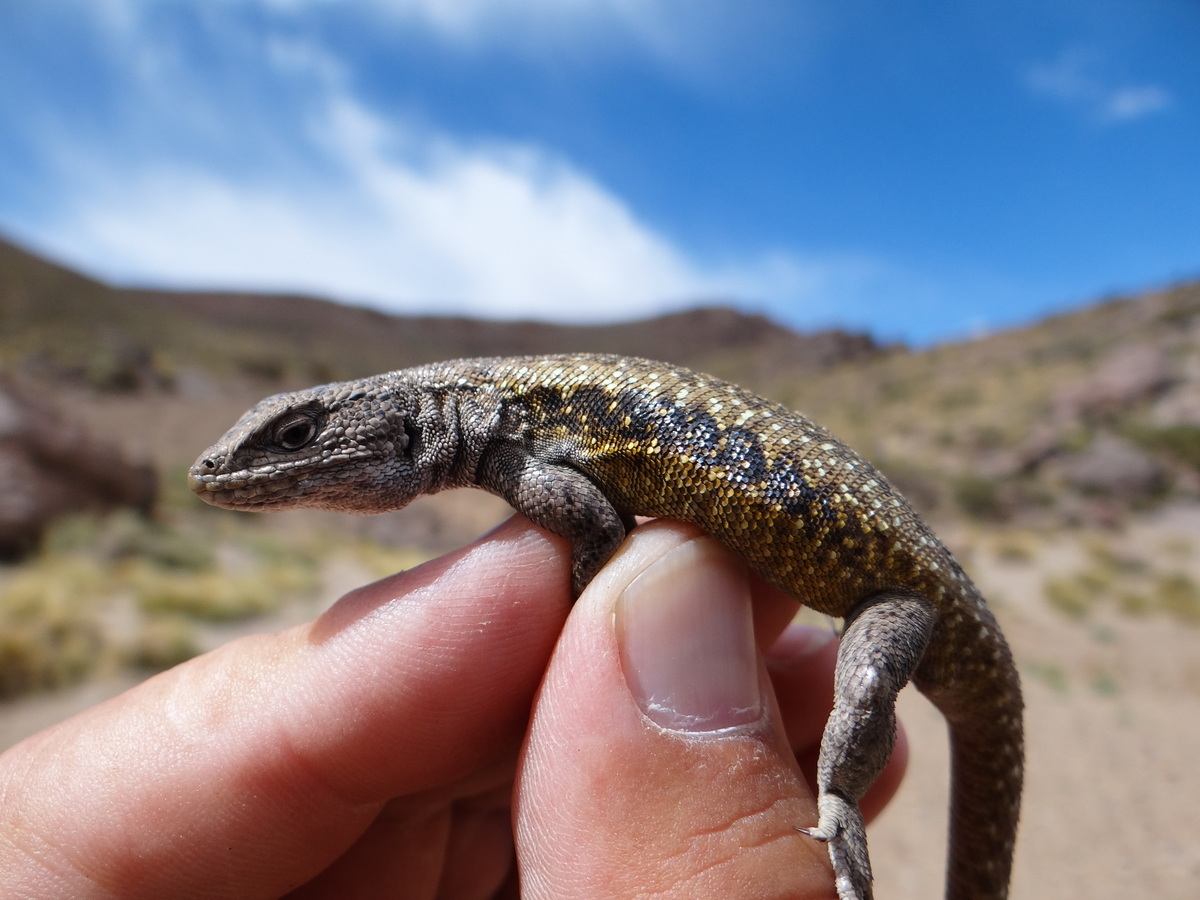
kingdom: Animalia
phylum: Chordata
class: Squamata
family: Liolaemidae
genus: Liolaemus
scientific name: Liolaemus smaug
